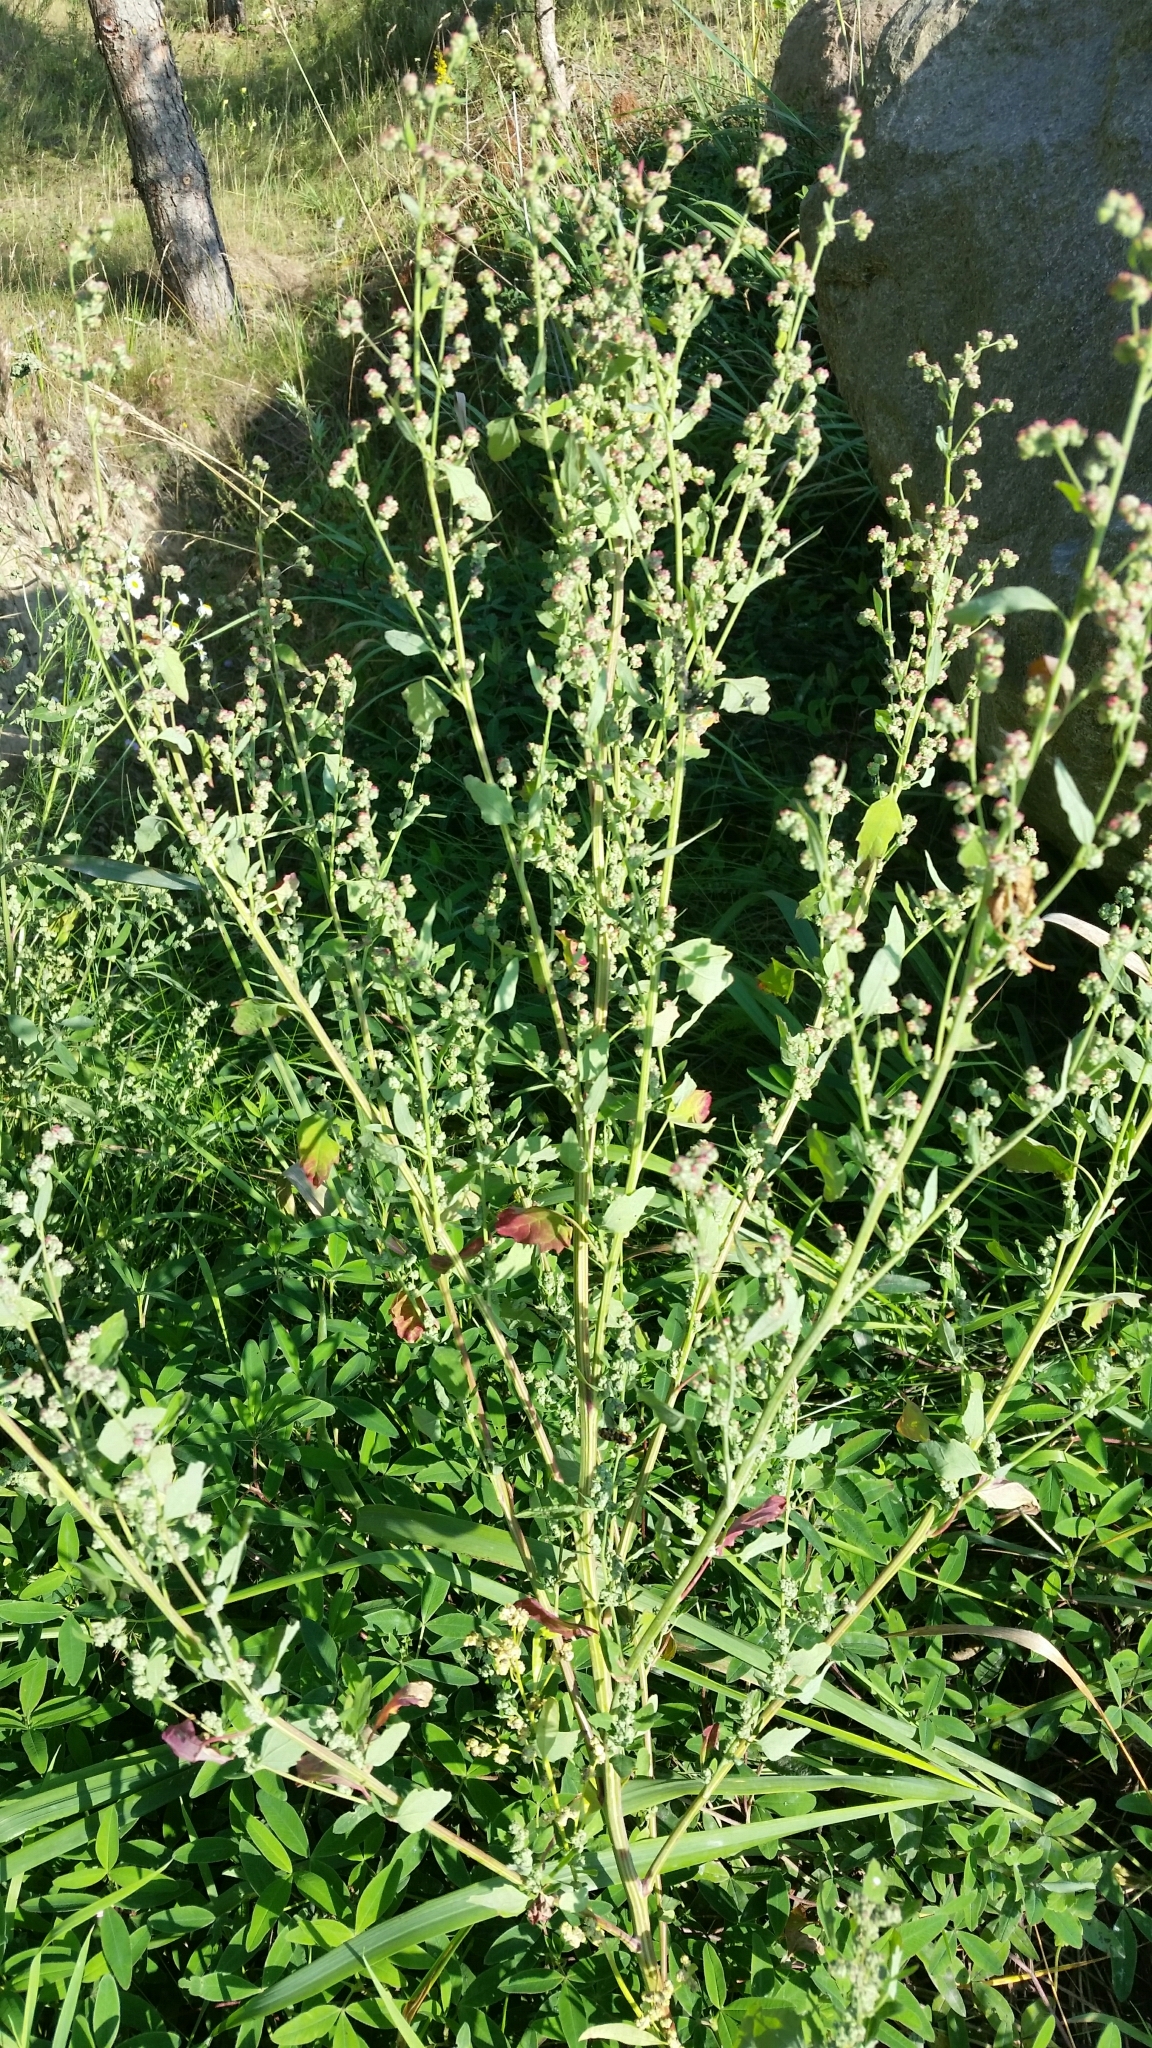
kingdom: Plantae
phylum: Tracheophyta
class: Magnoliopsida
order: Caryophyllales
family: Amaranthaceae
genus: Chenopodium
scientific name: Chenopodium album
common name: Fat-hen
